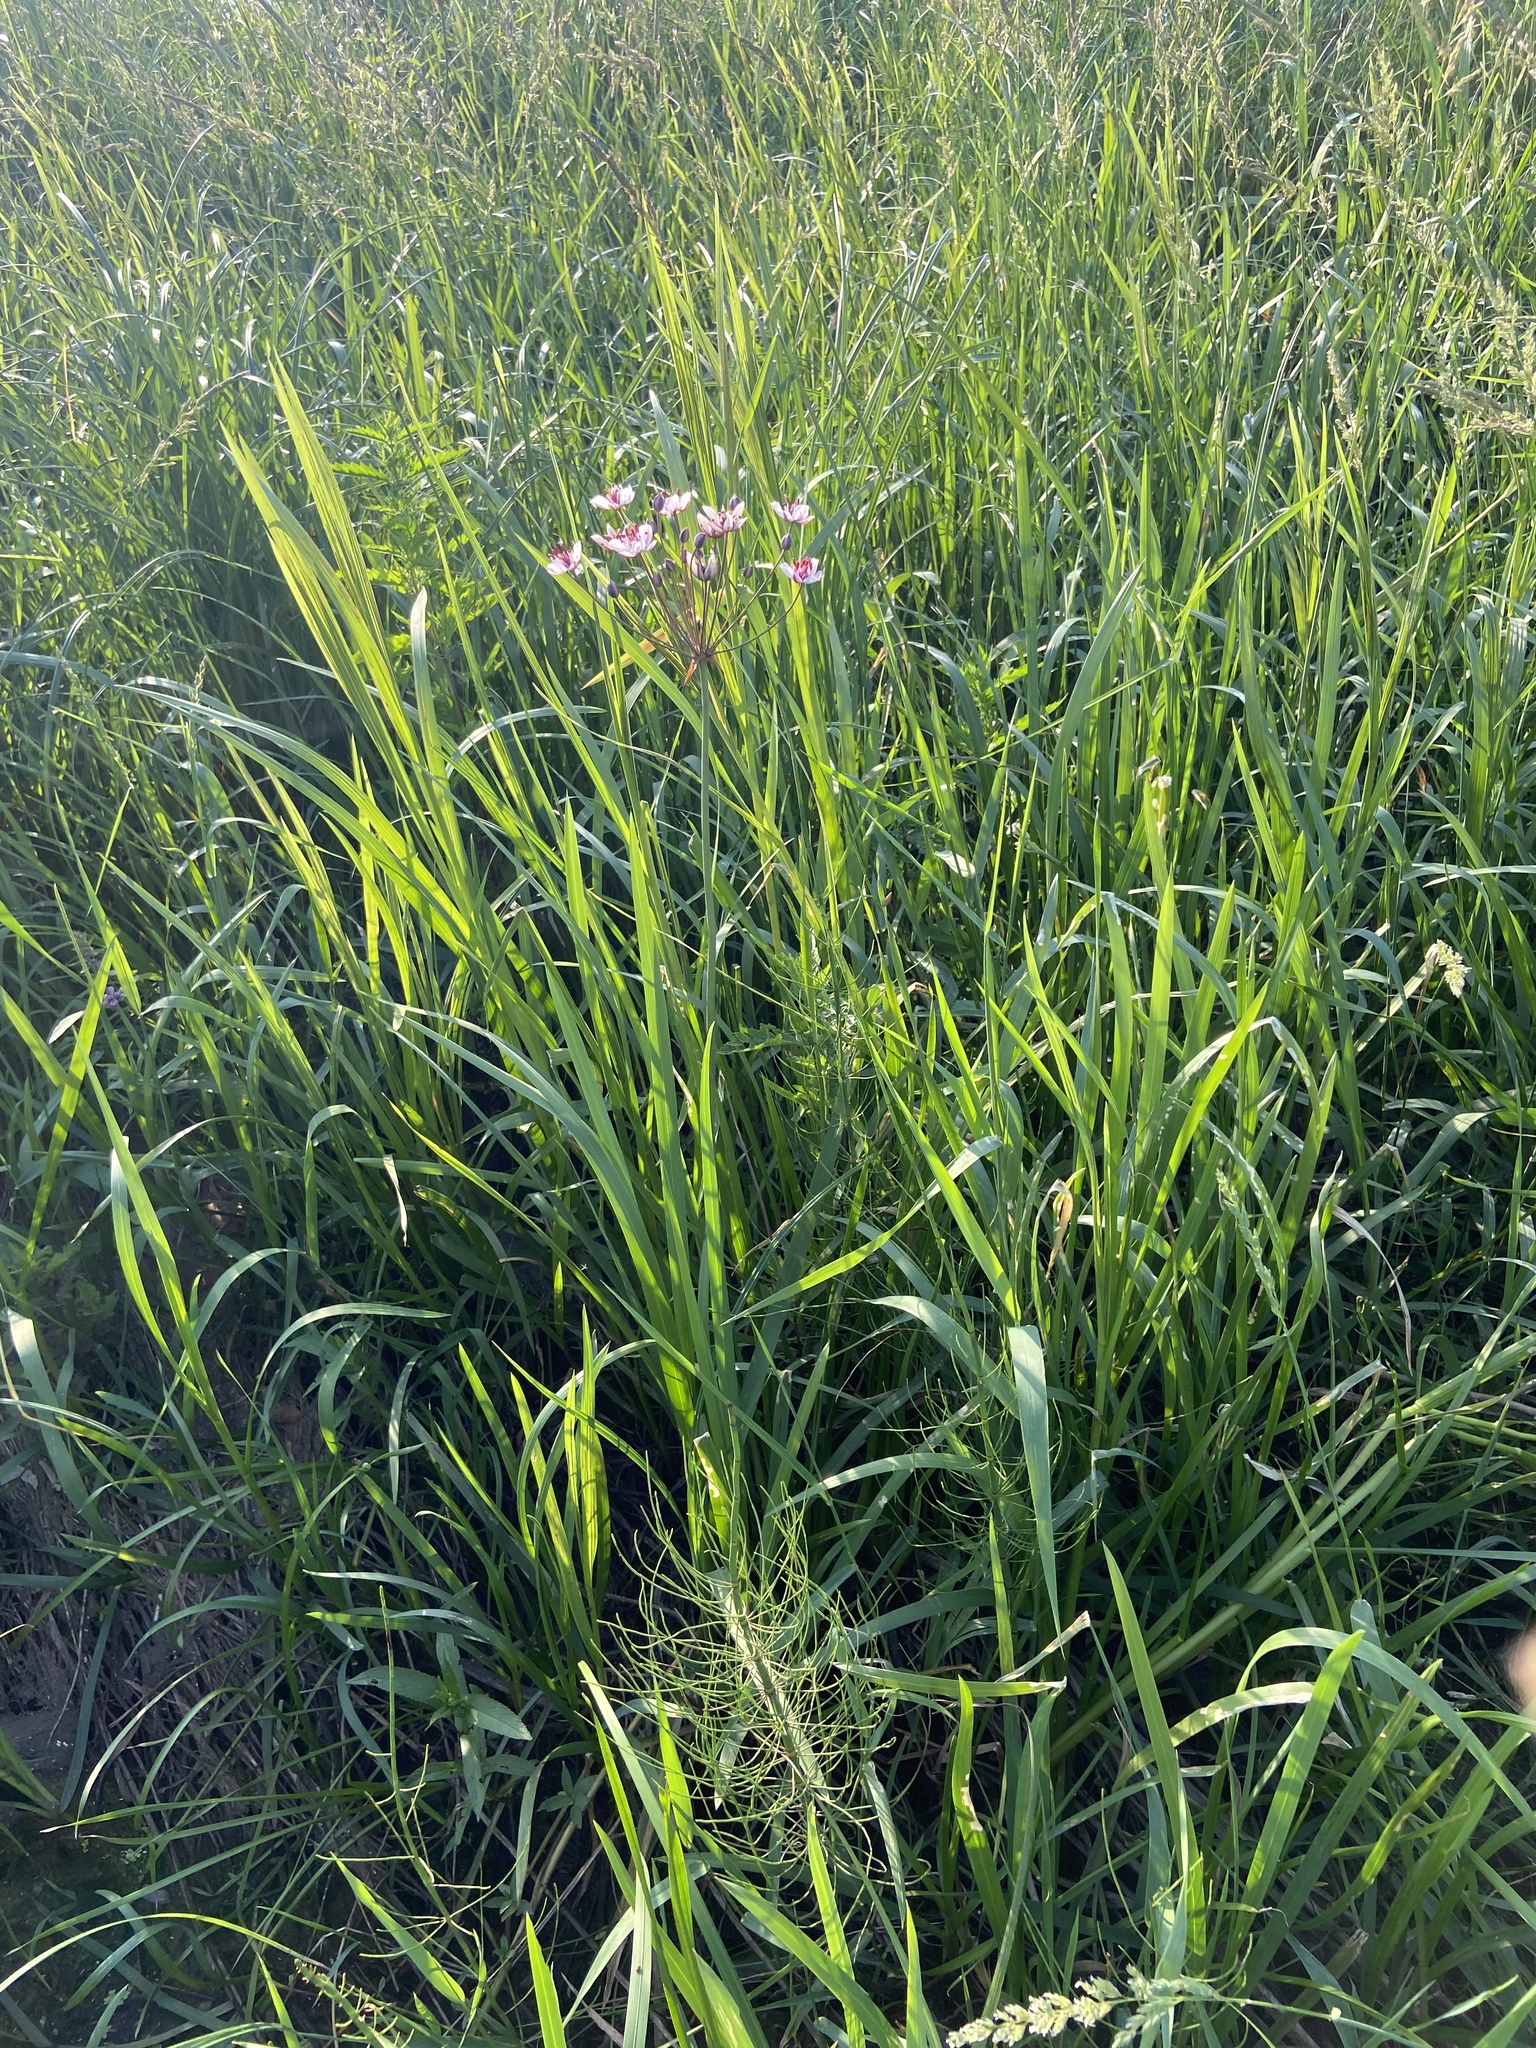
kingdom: Plantae
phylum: Tracheophyta
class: Liliopsida
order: Alismatales
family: Butomaceae
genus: Butomus
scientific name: Butomus umbellatus
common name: Flowering-rush
